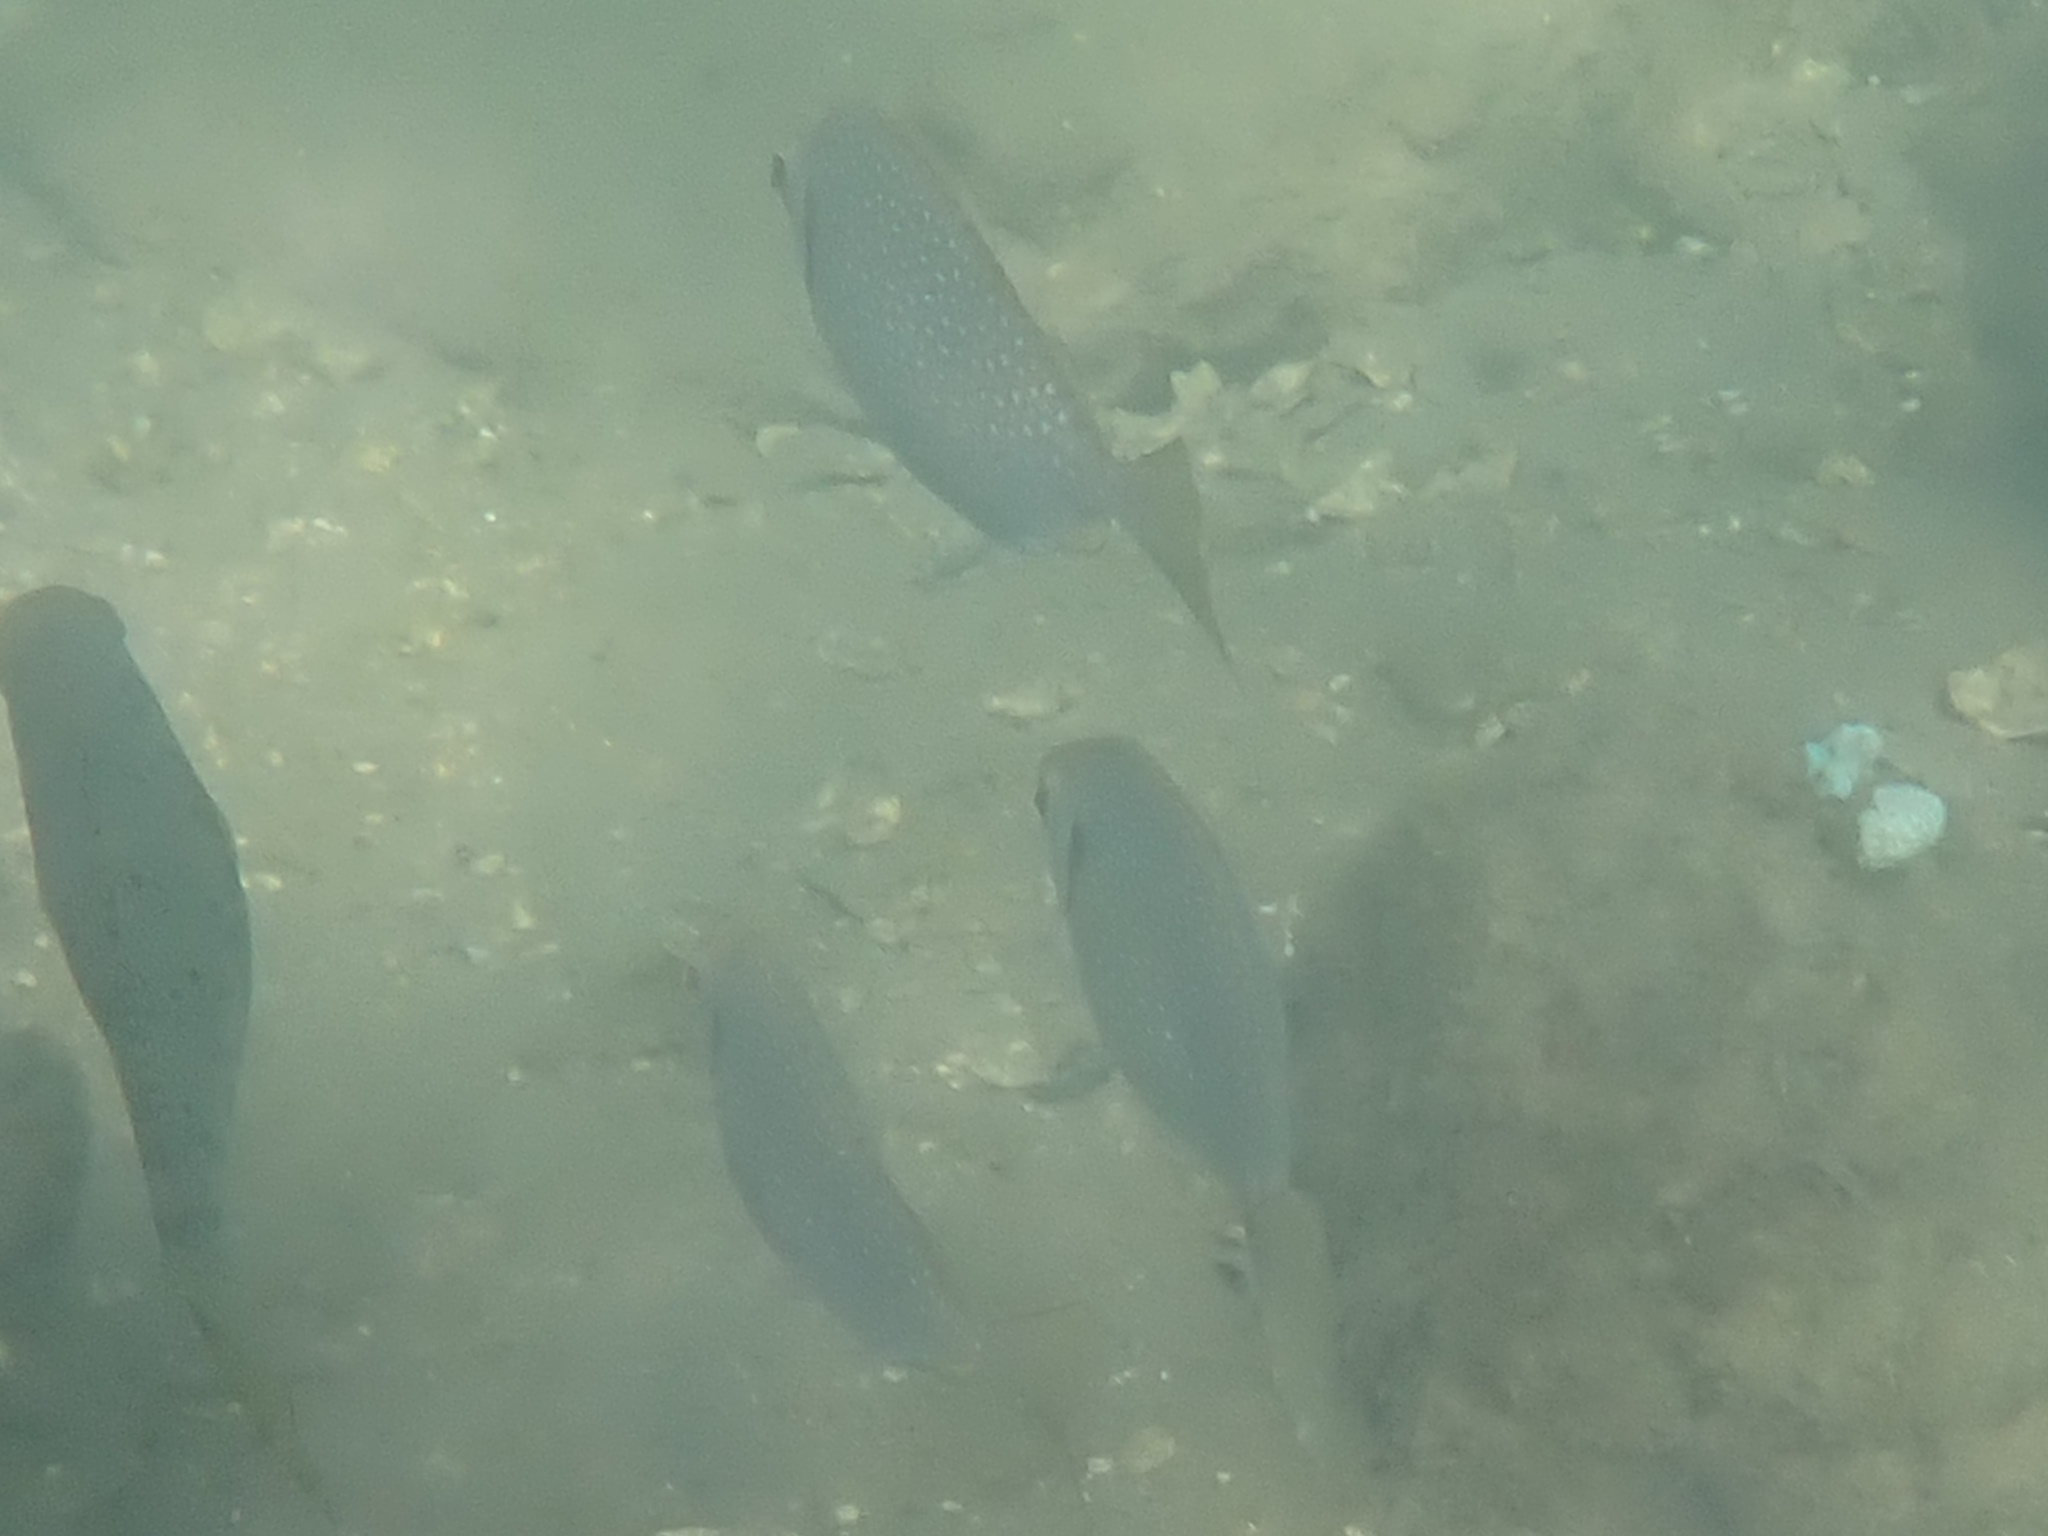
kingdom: Animalia
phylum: Chordata
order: Perciformes
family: Siganidae
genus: Siganus
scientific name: Siganus fuscescens
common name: Dusky rabbitfish
